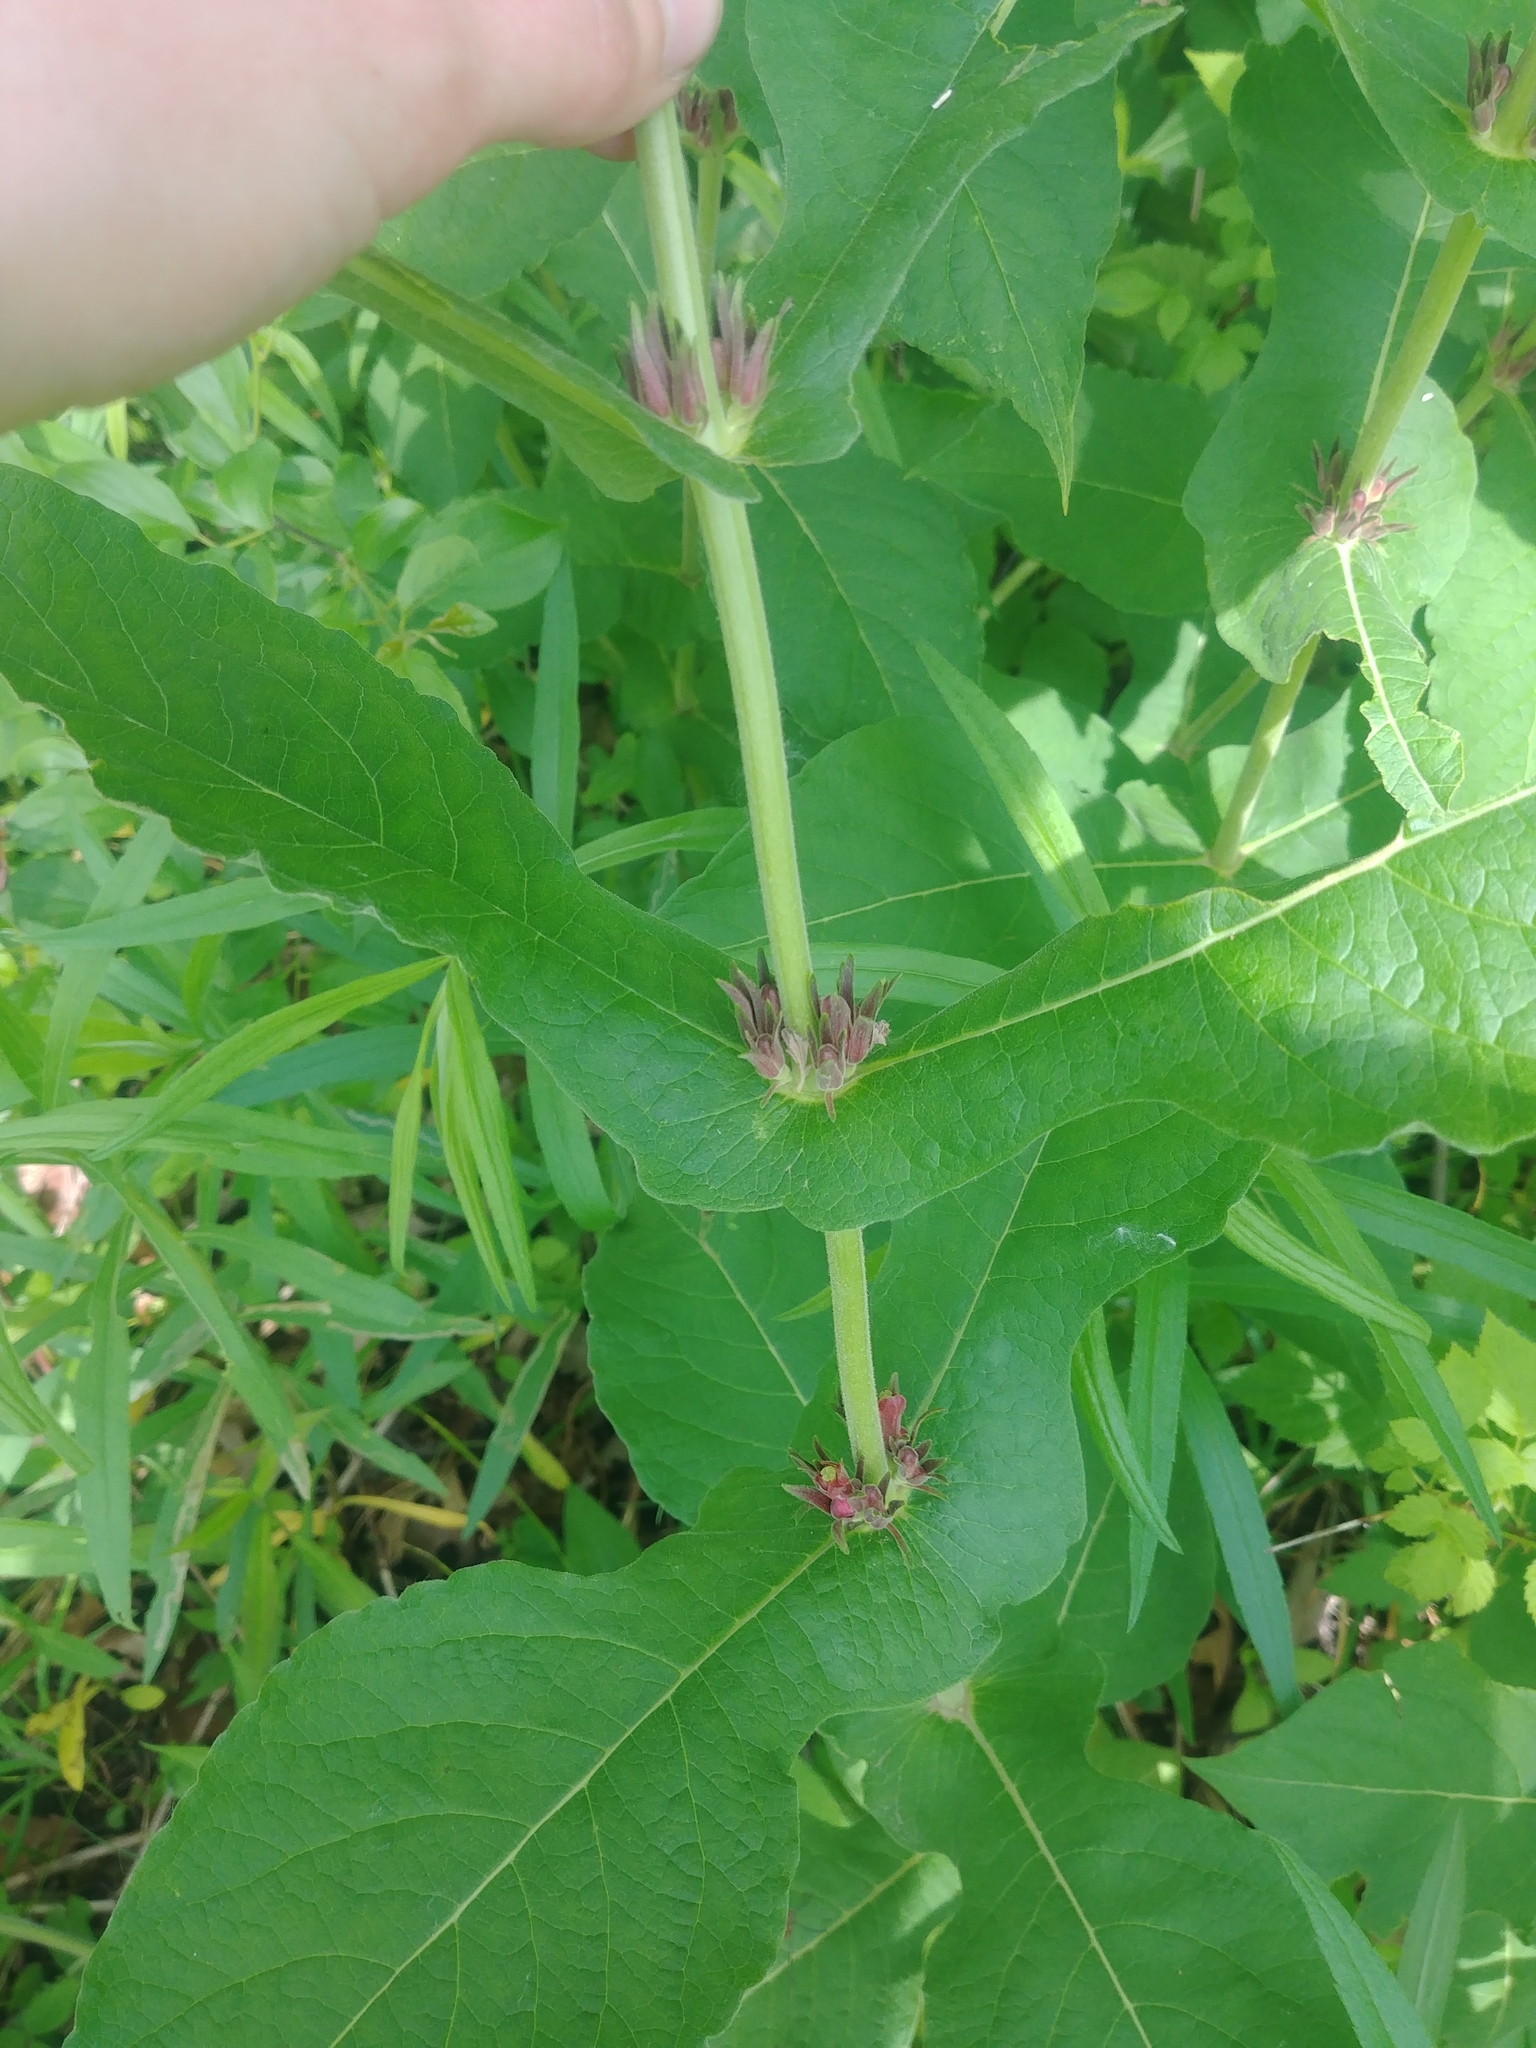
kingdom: Plantae
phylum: Tracheophyta
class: Magnoliopsida
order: Dipsacales
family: Caprifoliaceae
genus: Triosteum
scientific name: Triosteum perfoliatum
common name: Common horse-gentian
